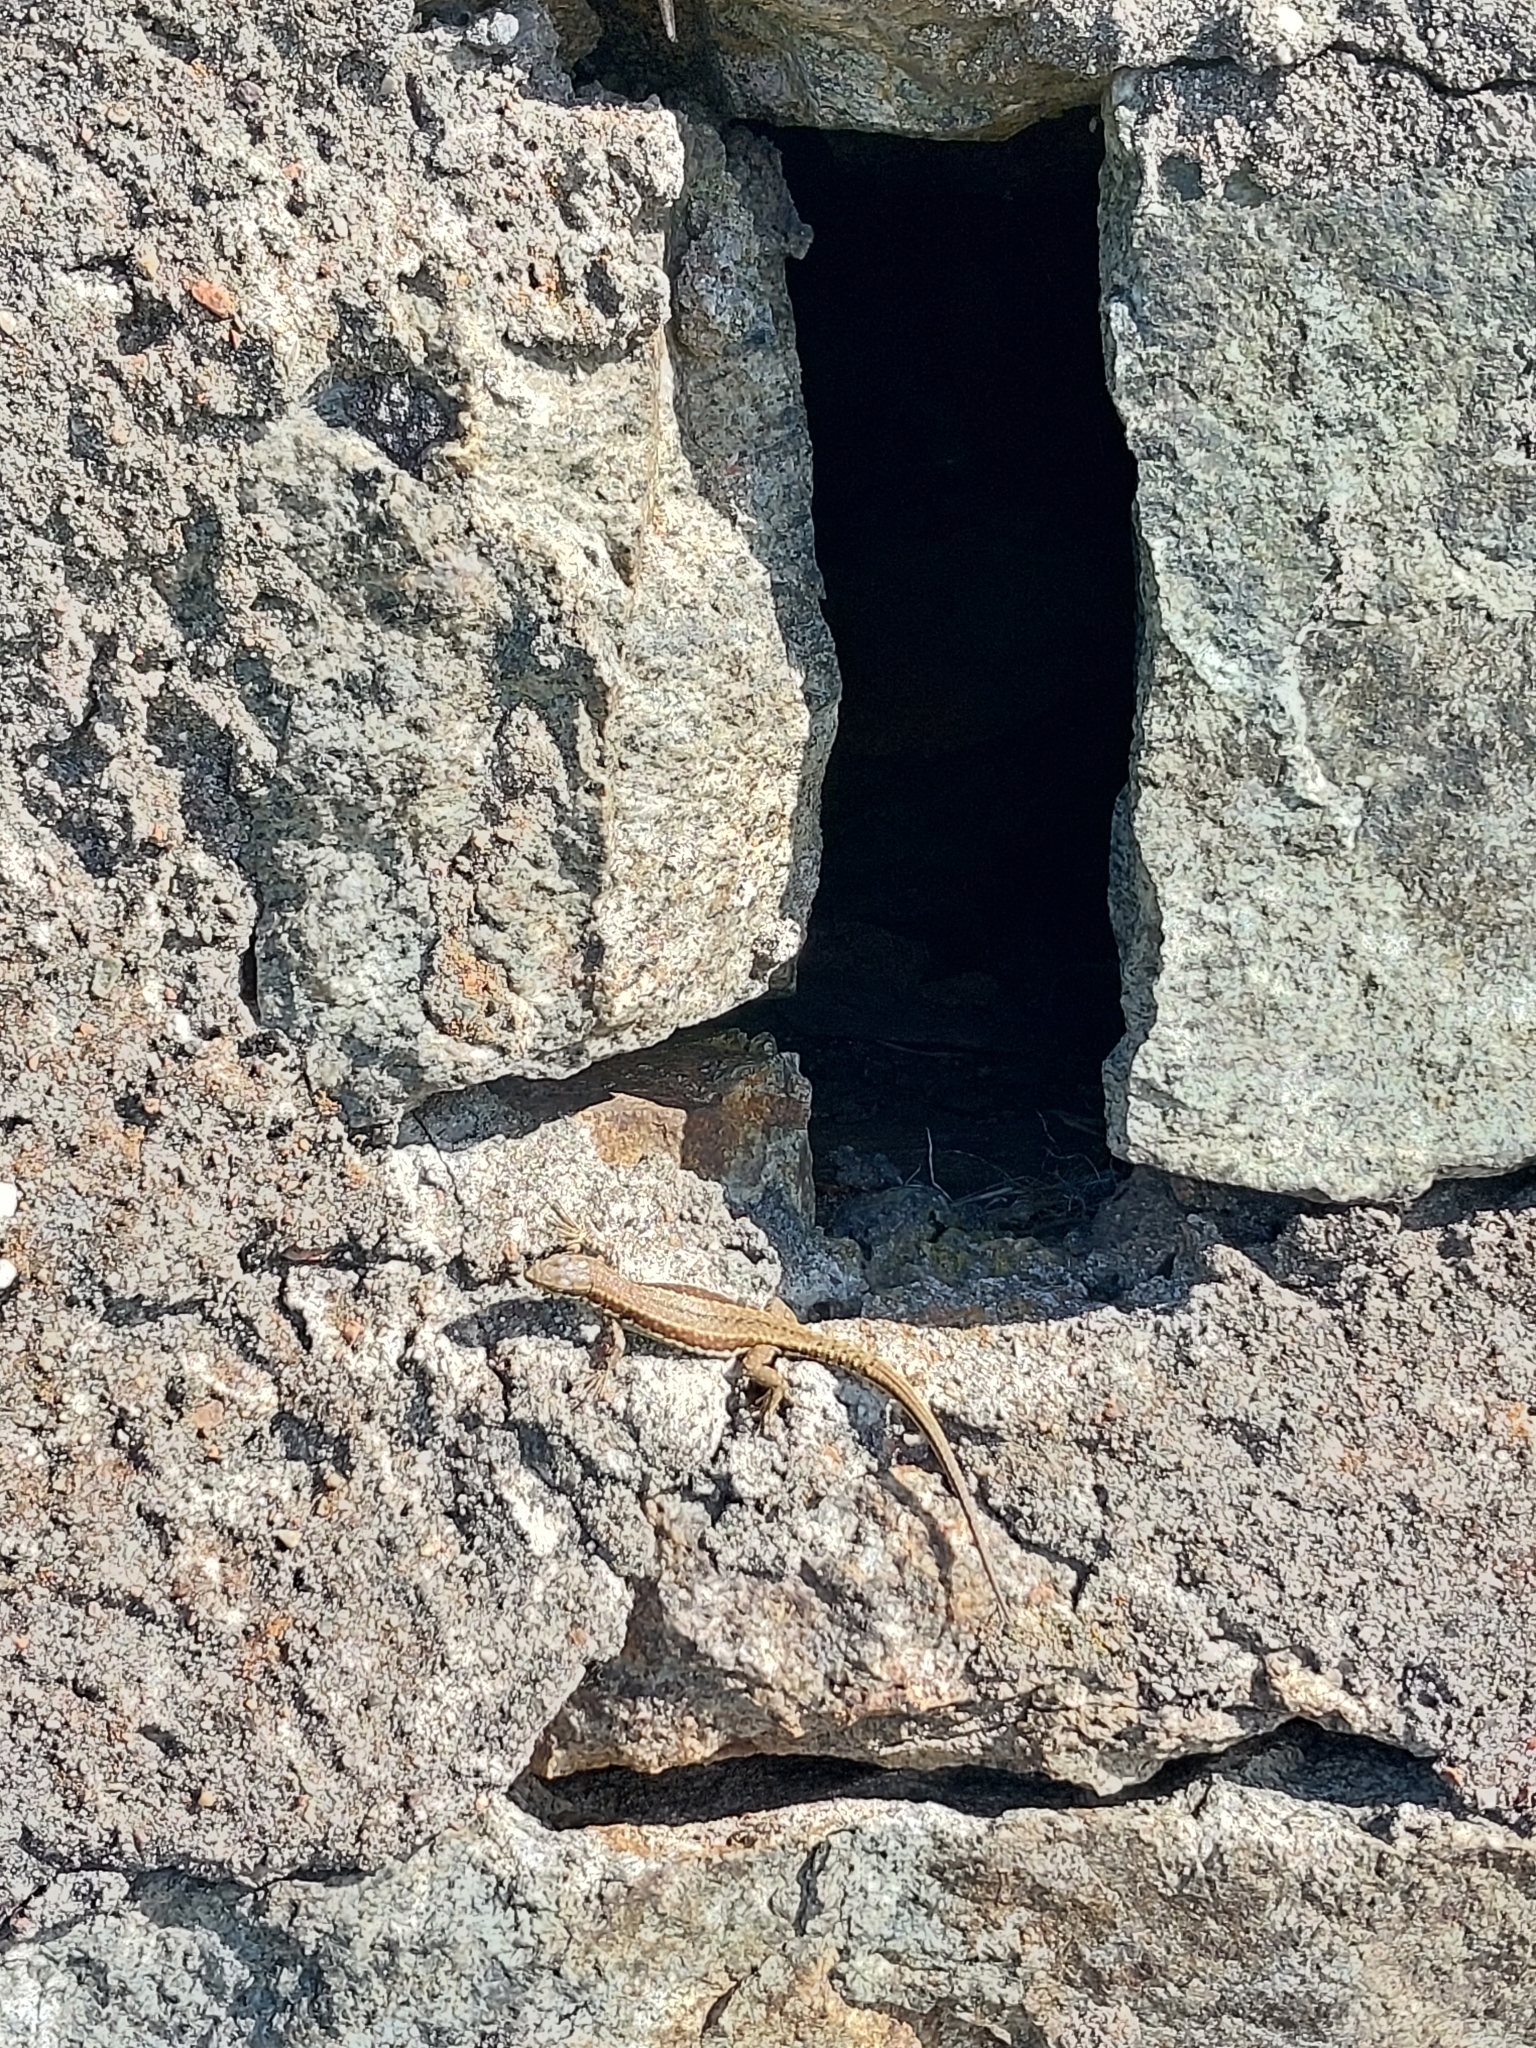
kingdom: Animalia
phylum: Chordata
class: Squamata
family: Lacertidae
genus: Podarcis
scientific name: Podarcis muralis
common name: Common wall lizard
